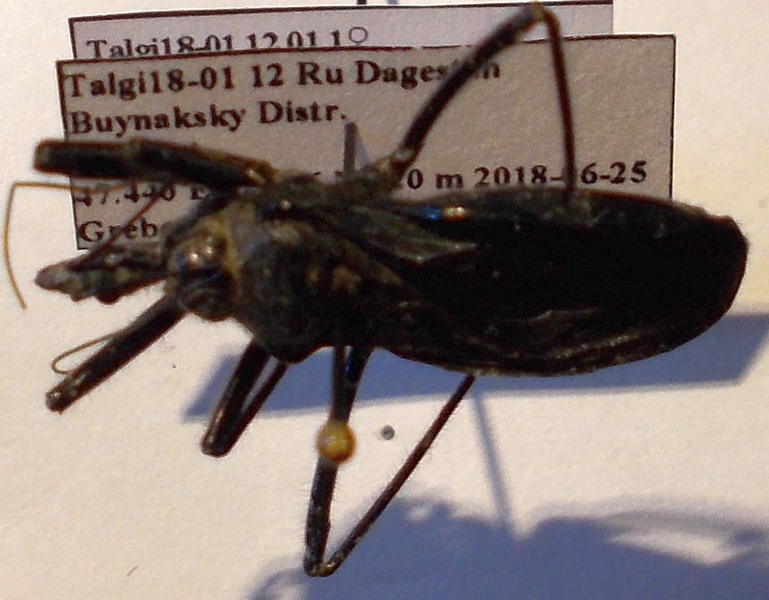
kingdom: Animalia
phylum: Arthropoda
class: Insecta
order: Hemiptera
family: Reduviidae
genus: Rhynocoris
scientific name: Rhynocoris ibericus
